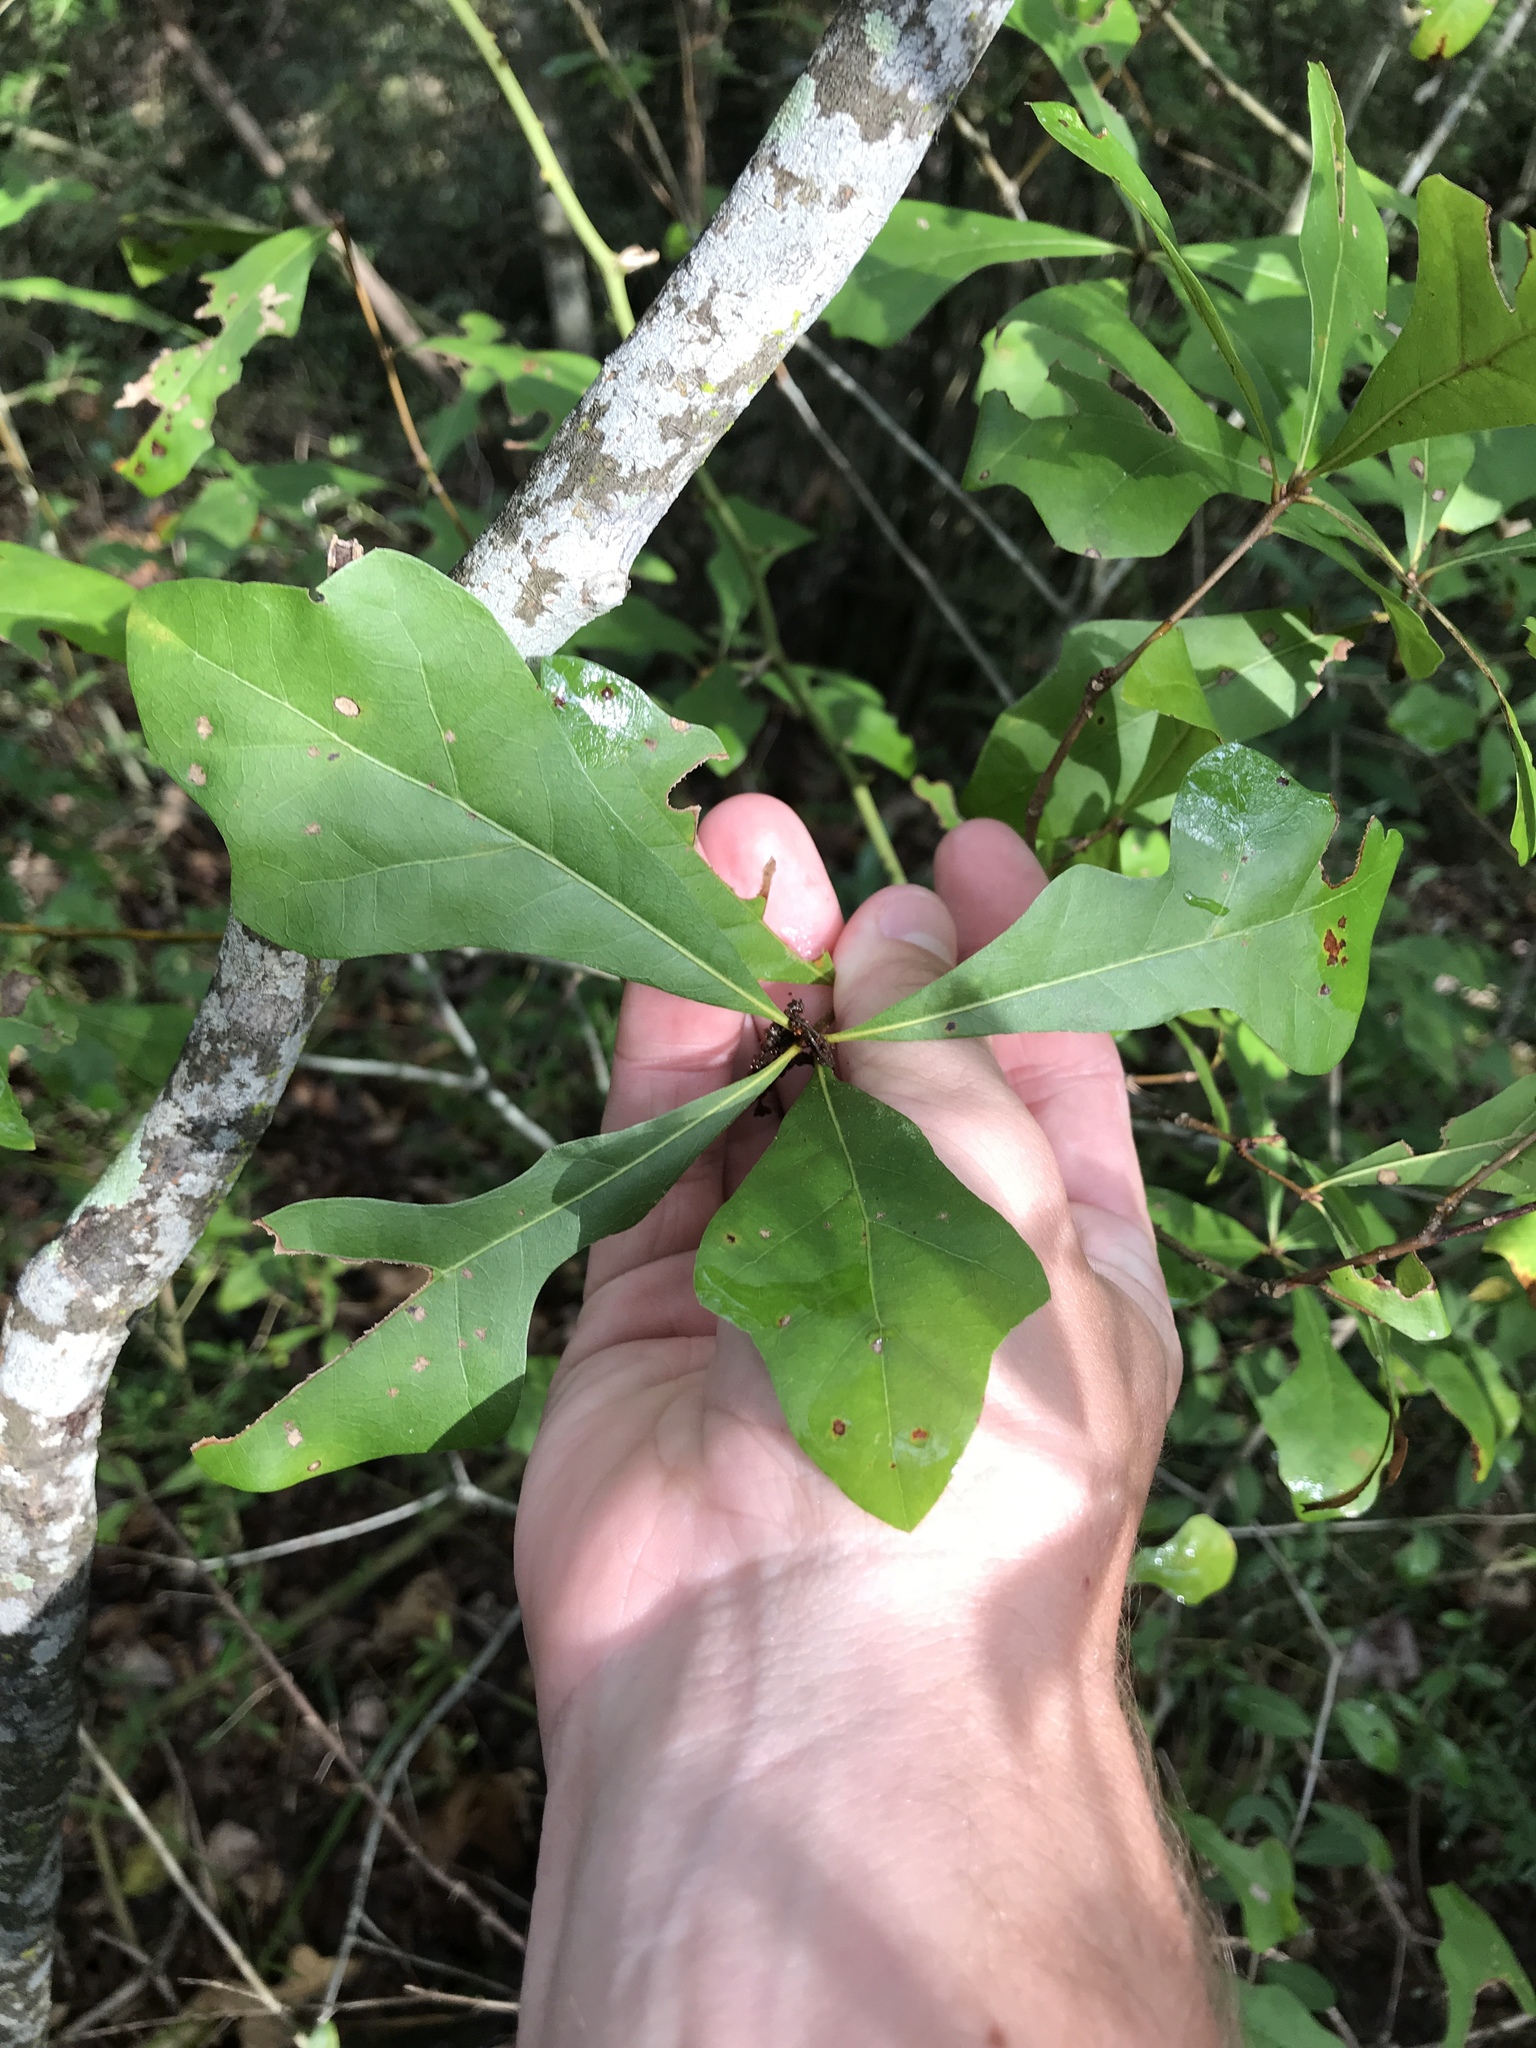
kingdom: Plantae
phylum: Tracheophyta
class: Magnoliopsida
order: Fagales
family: Fagaceae
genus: Quercus
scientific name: Quercus nigra
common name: Water oak
